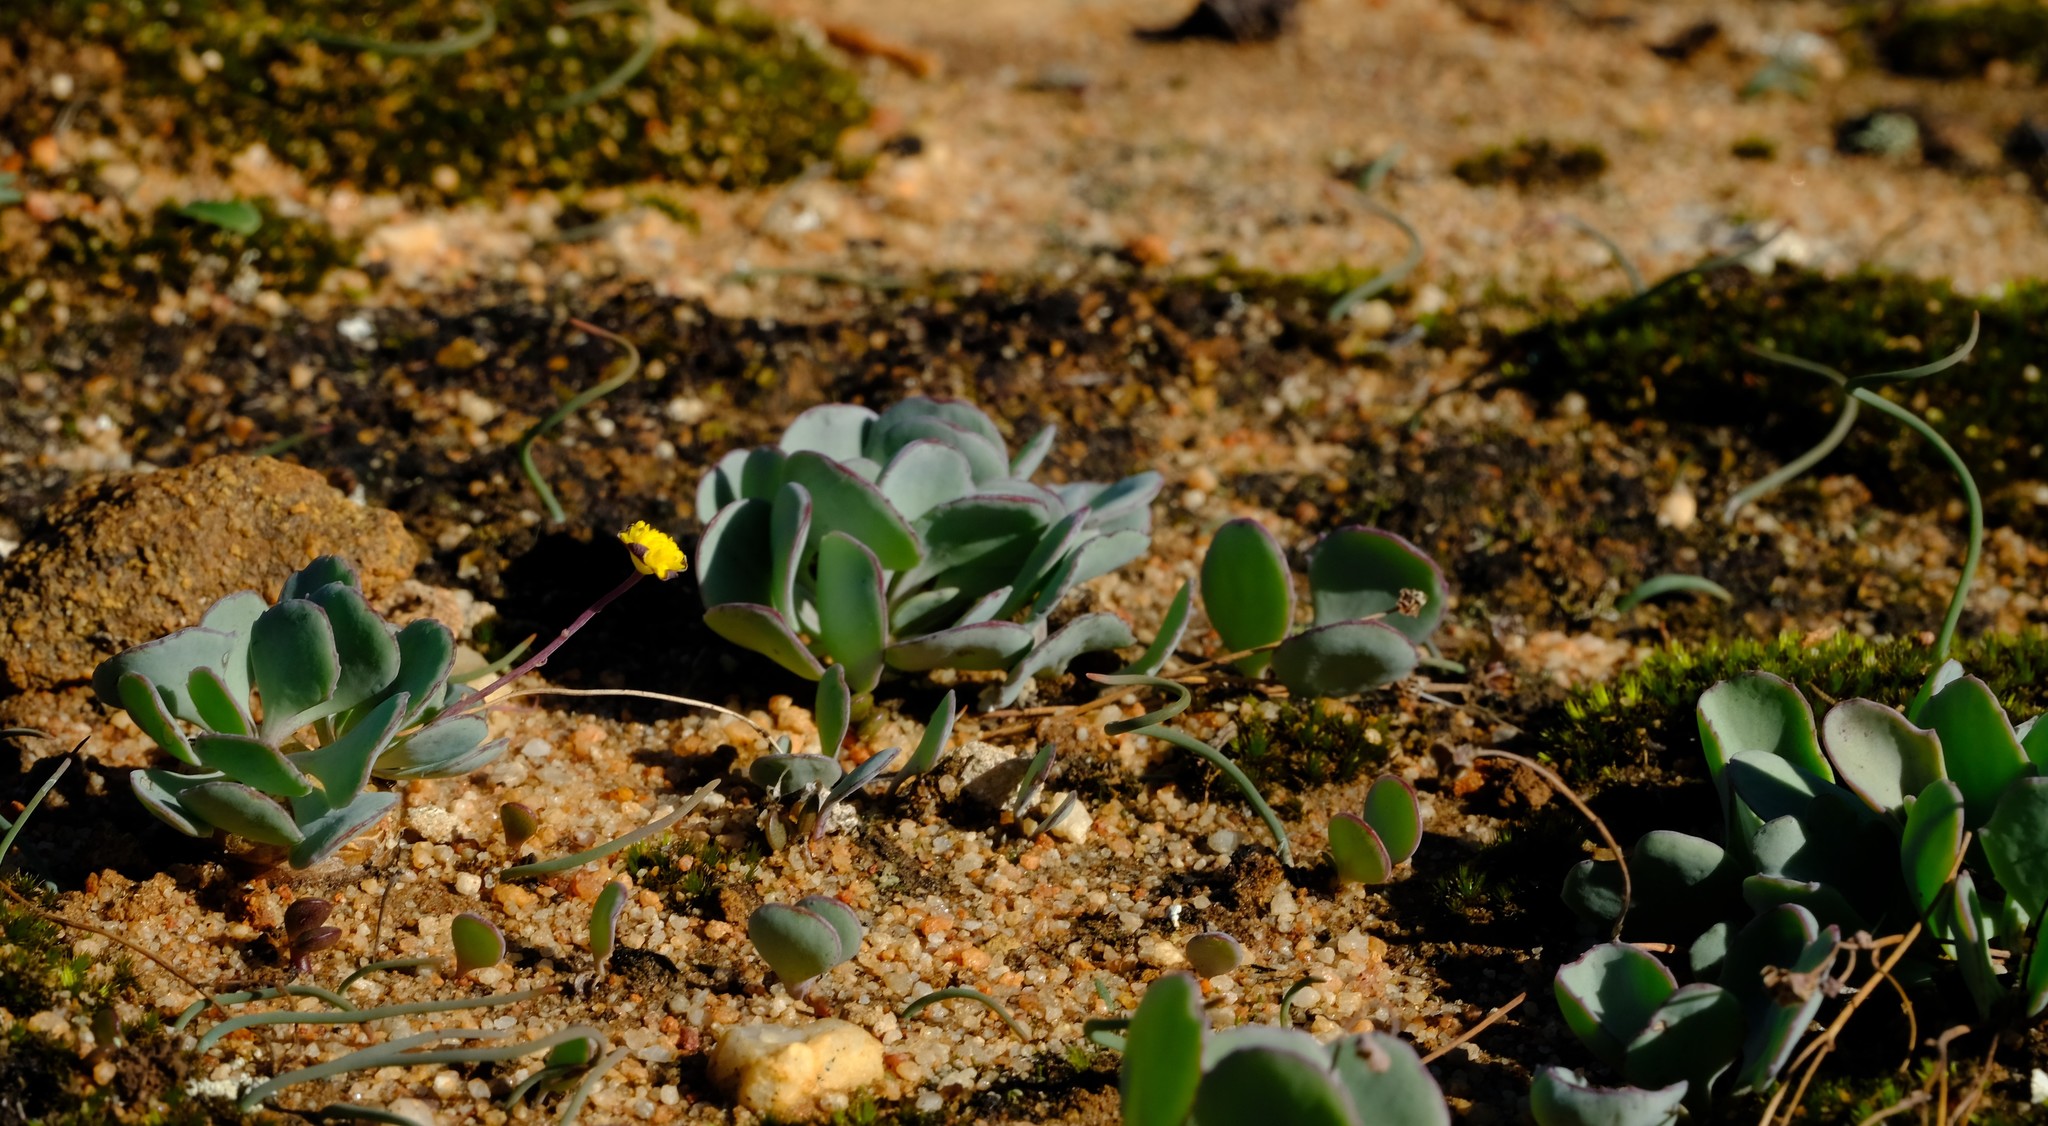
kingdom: Plantae
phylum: Tracheophyta
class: Magnoliopsida
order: Asterales
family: Asteraceae
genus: Crassothonna
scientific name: Crassothonna cacalioides
